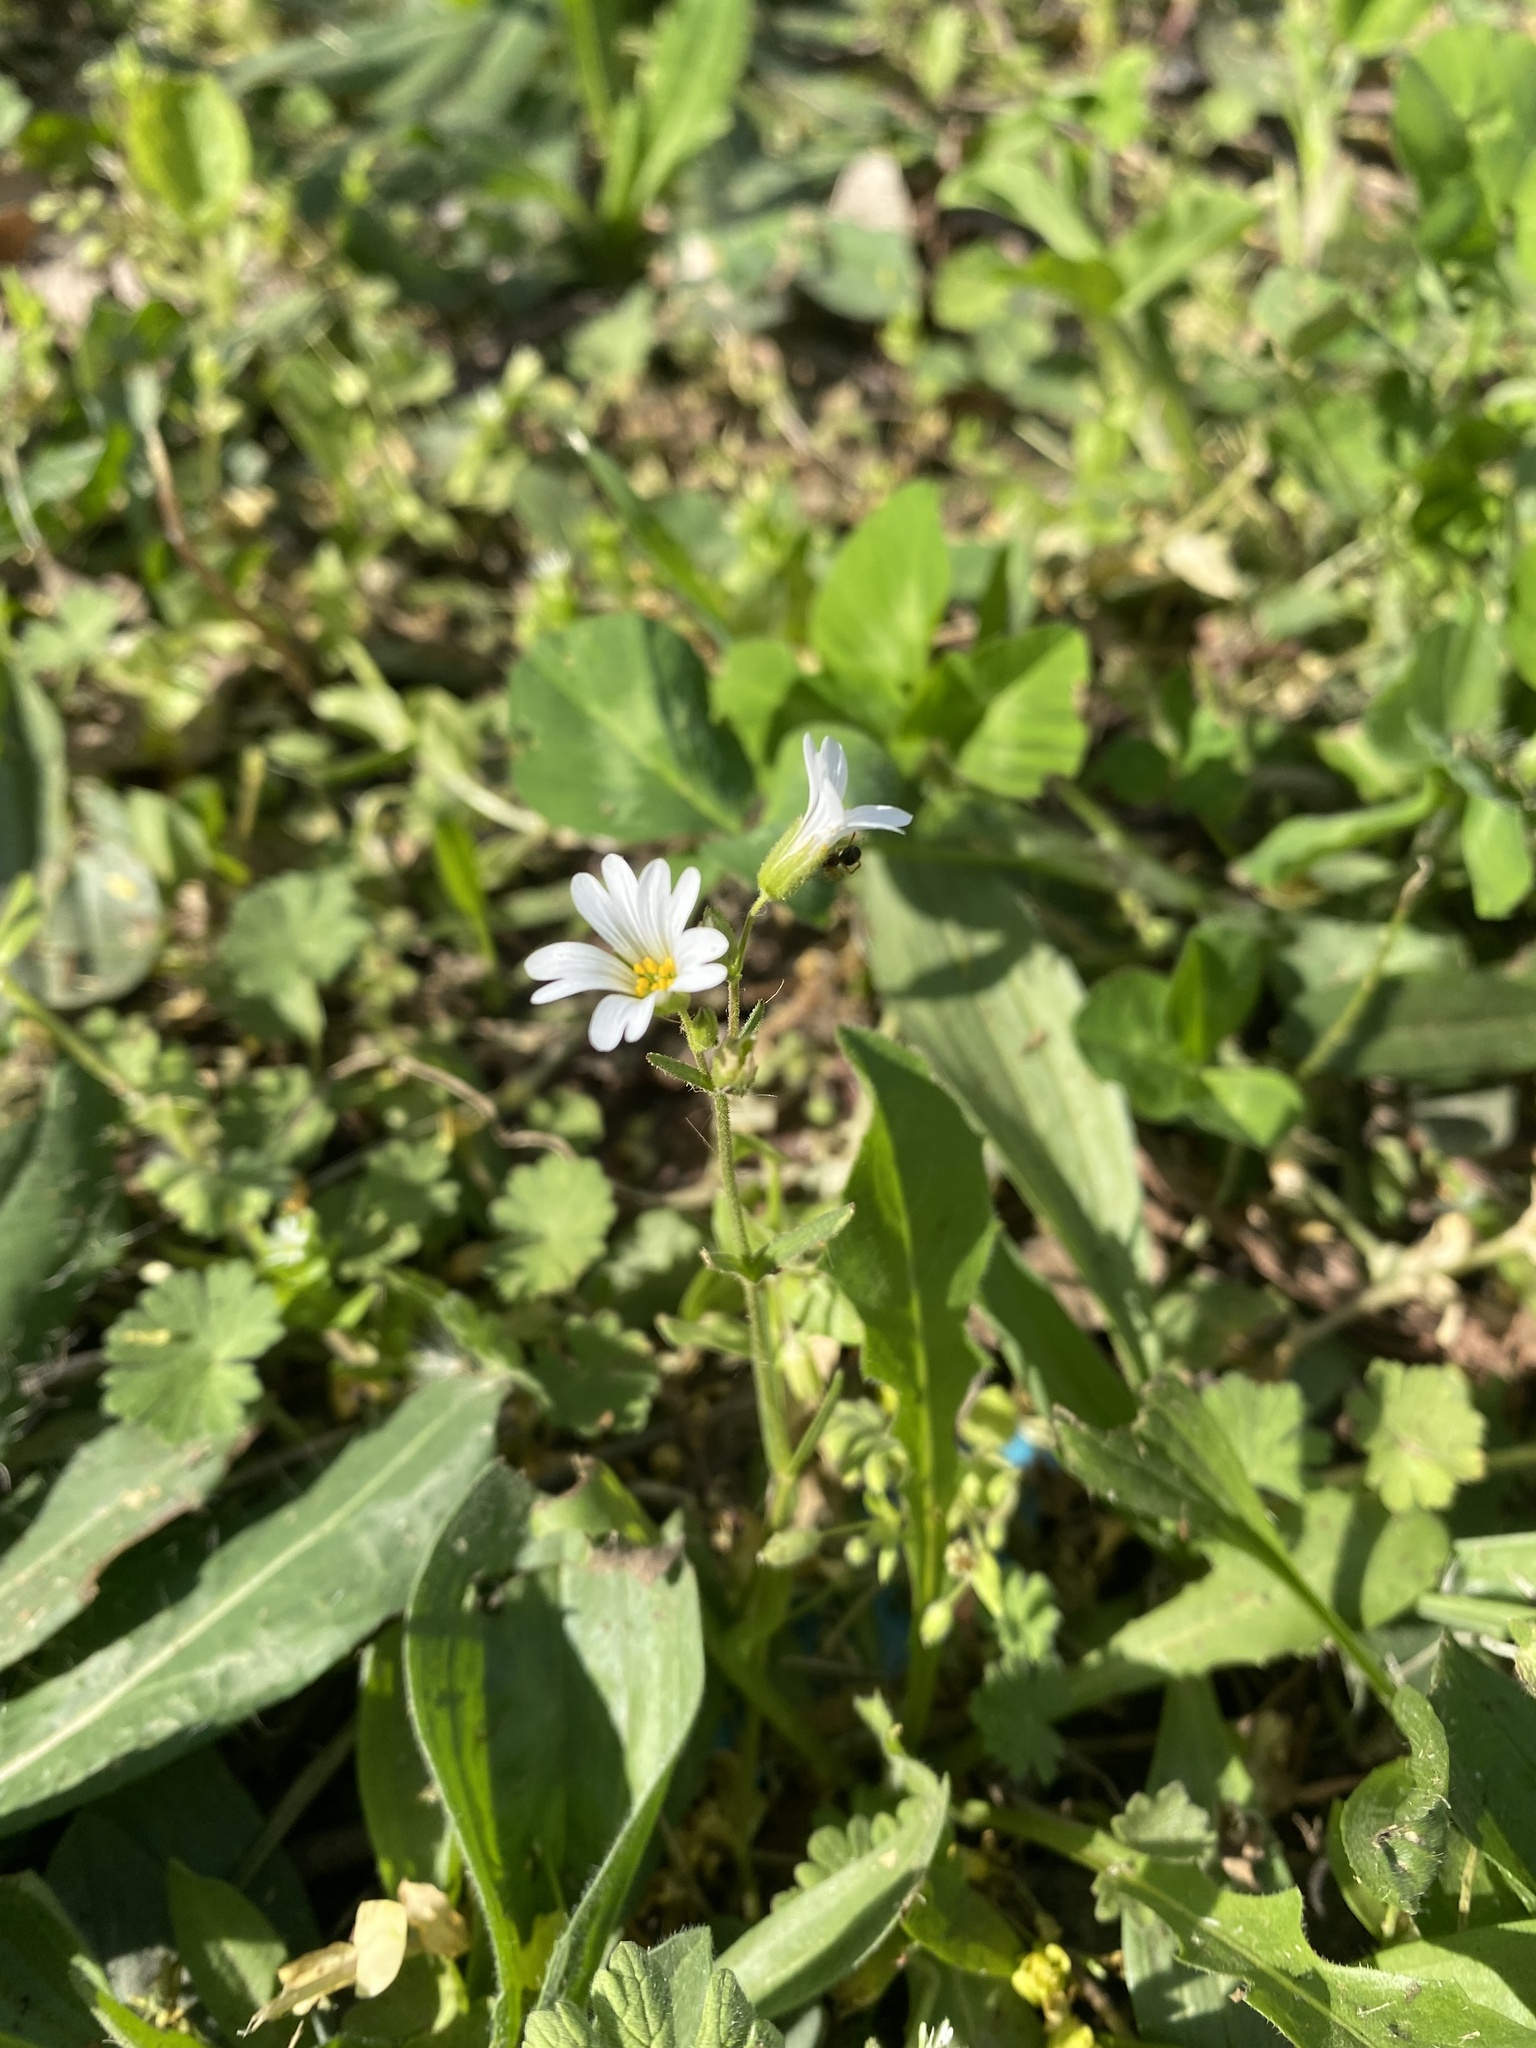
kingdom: Plantae
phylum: Tracheophyta
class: Magnoliopsida
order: Caryophyllales
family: Caryophyllaceae
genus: Dichodon
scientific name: Dichodon viscidum
